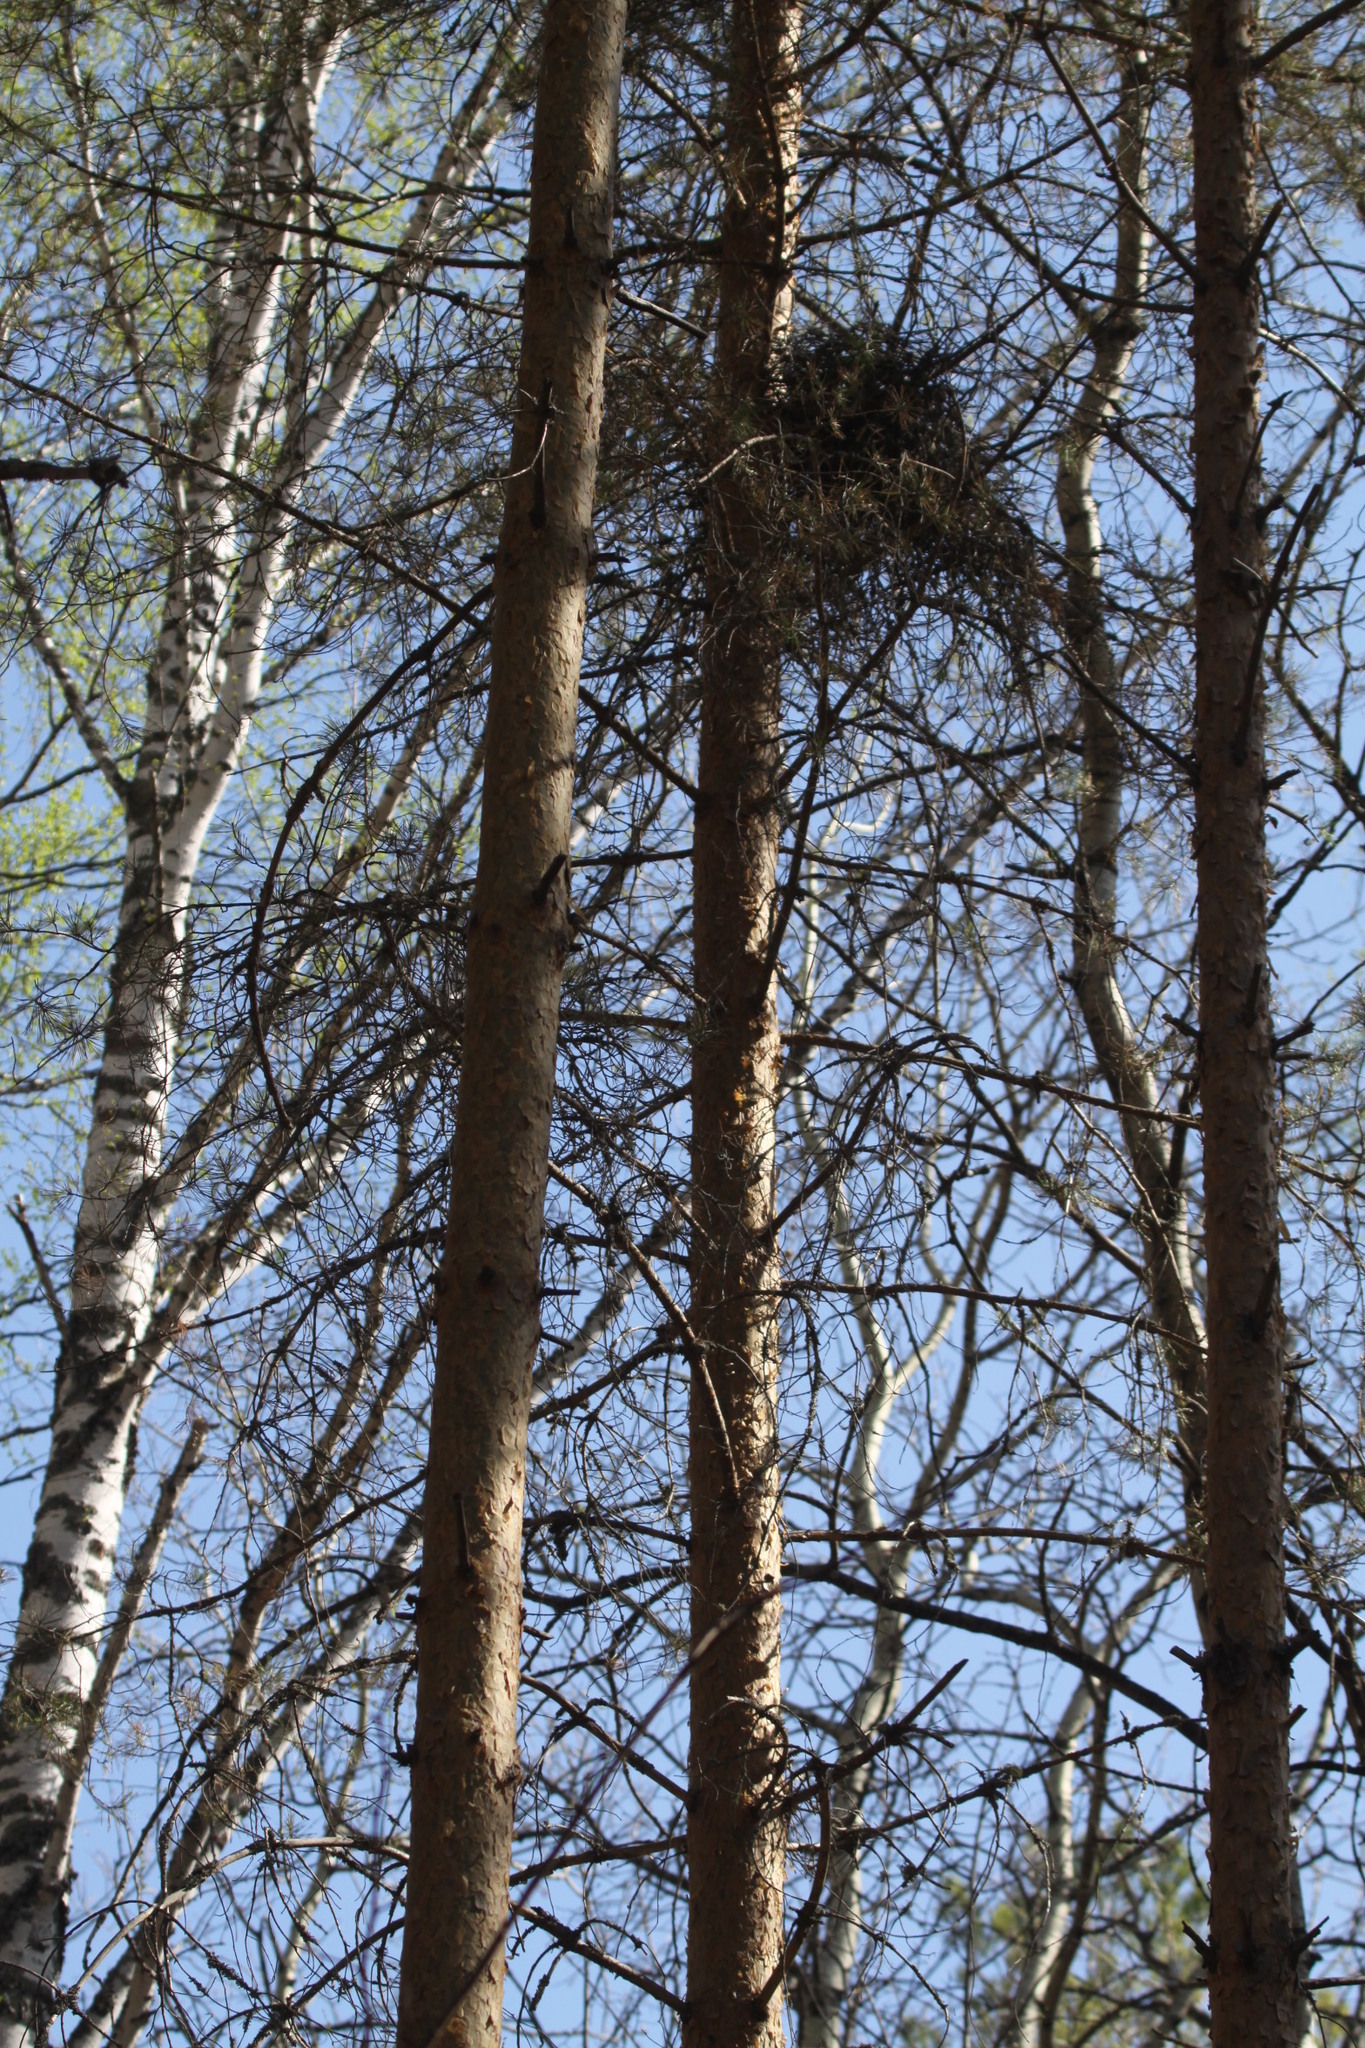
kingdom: Animalia
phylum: Chordata
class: Aves
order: Accipitriformes
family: Accipitridae
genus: Accipiter
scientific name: Accipiter nisus
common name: Eurasian sparrowhawk
